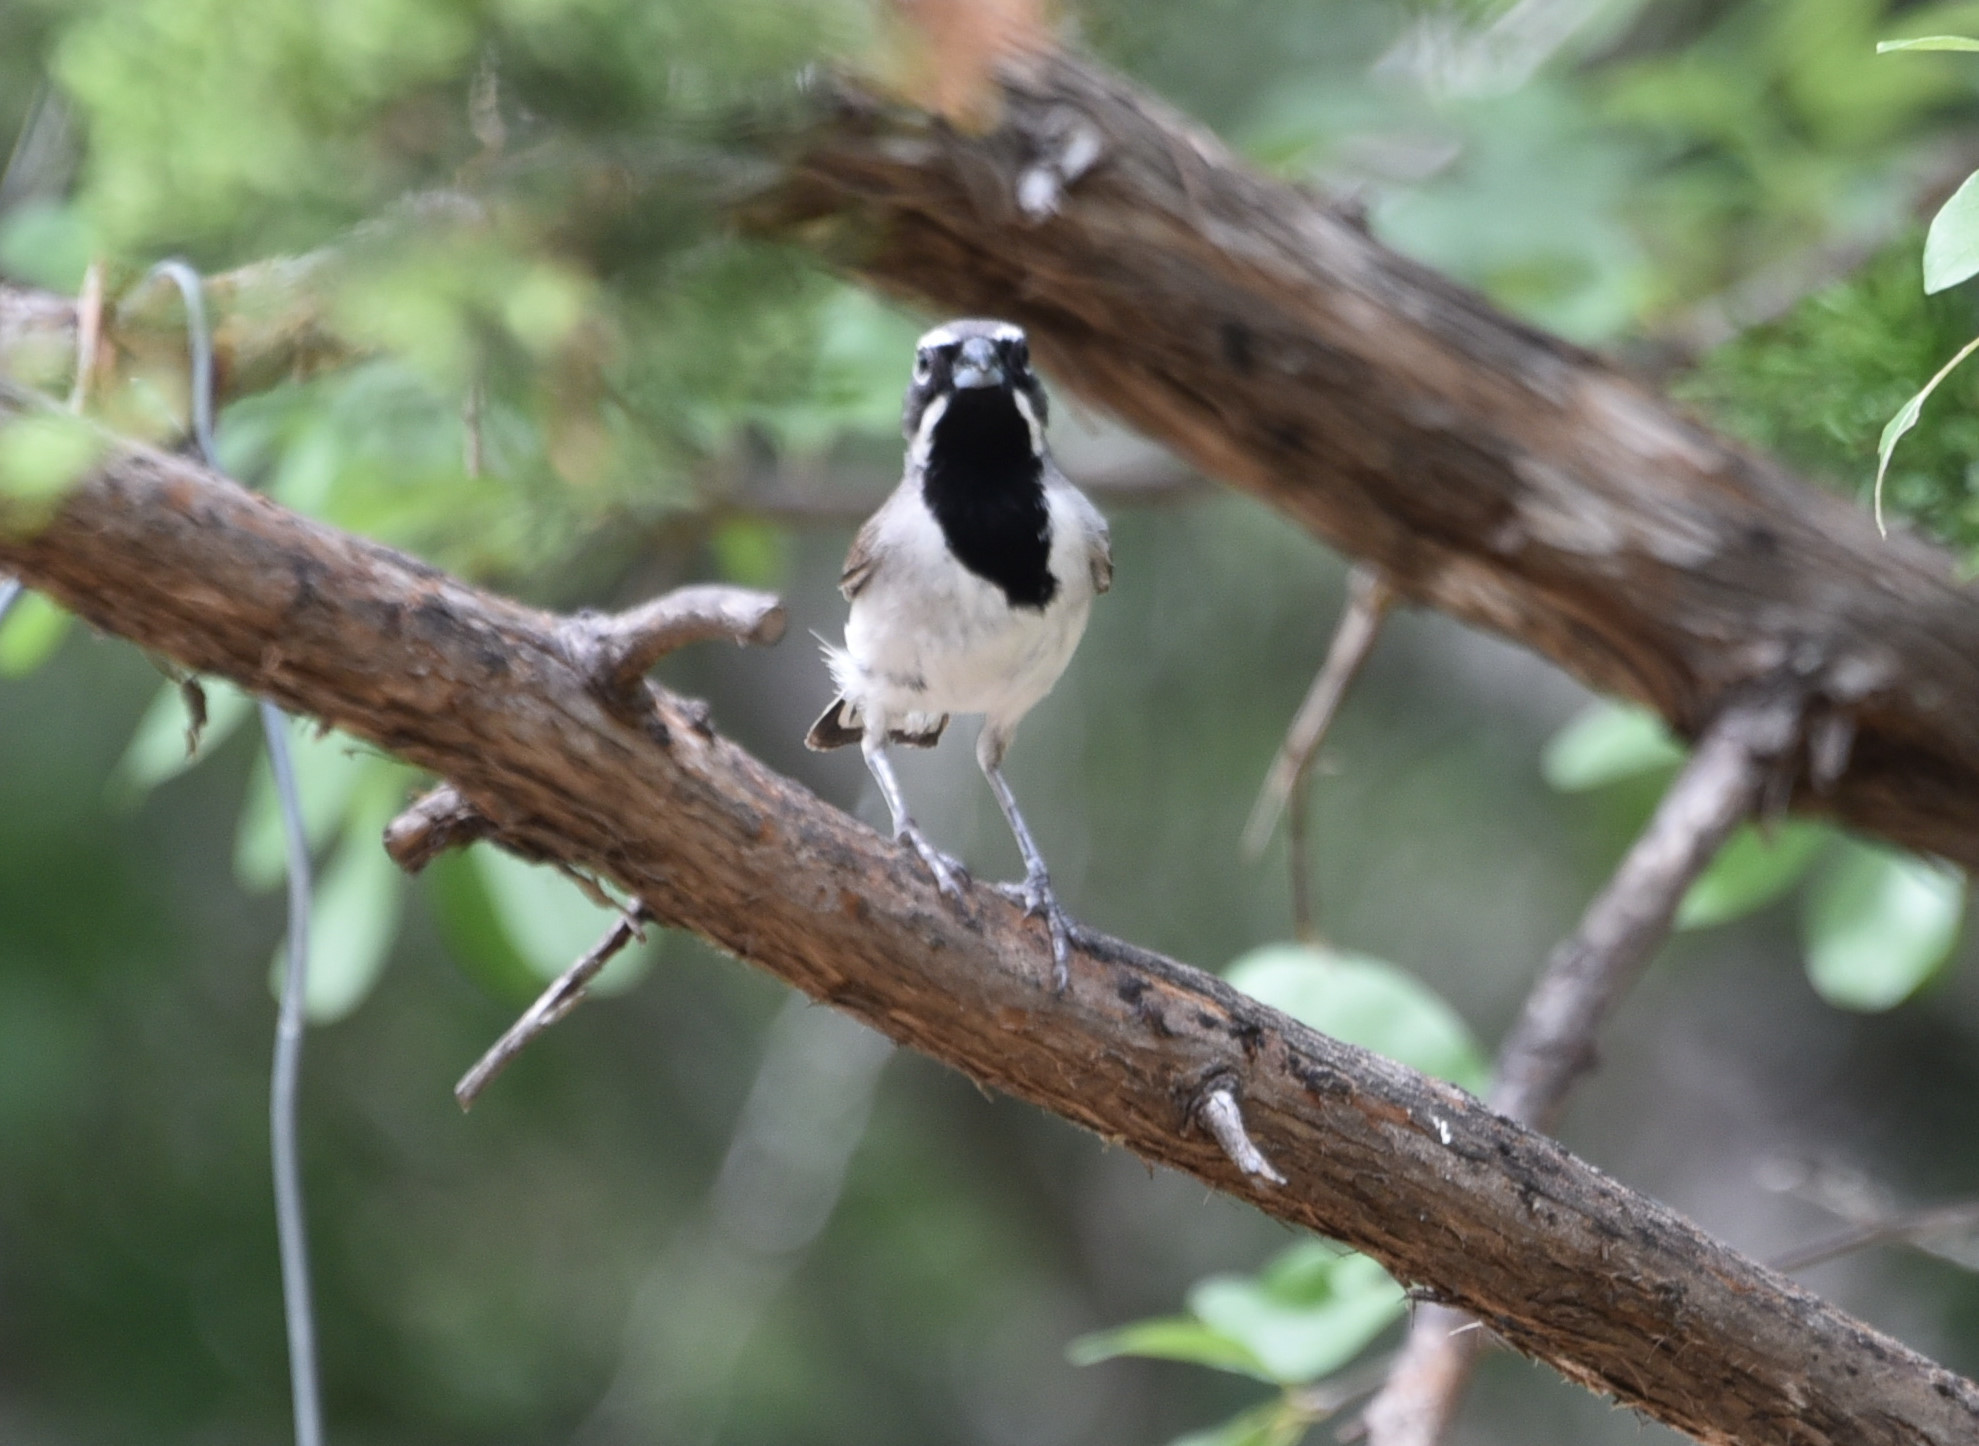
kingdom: Animalia
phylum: Chordata
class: Aves
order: Passeriformes
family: Passerellidae
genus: Amphispiza
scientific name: Amphispiza bilineata
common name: Black-throated sparrow
